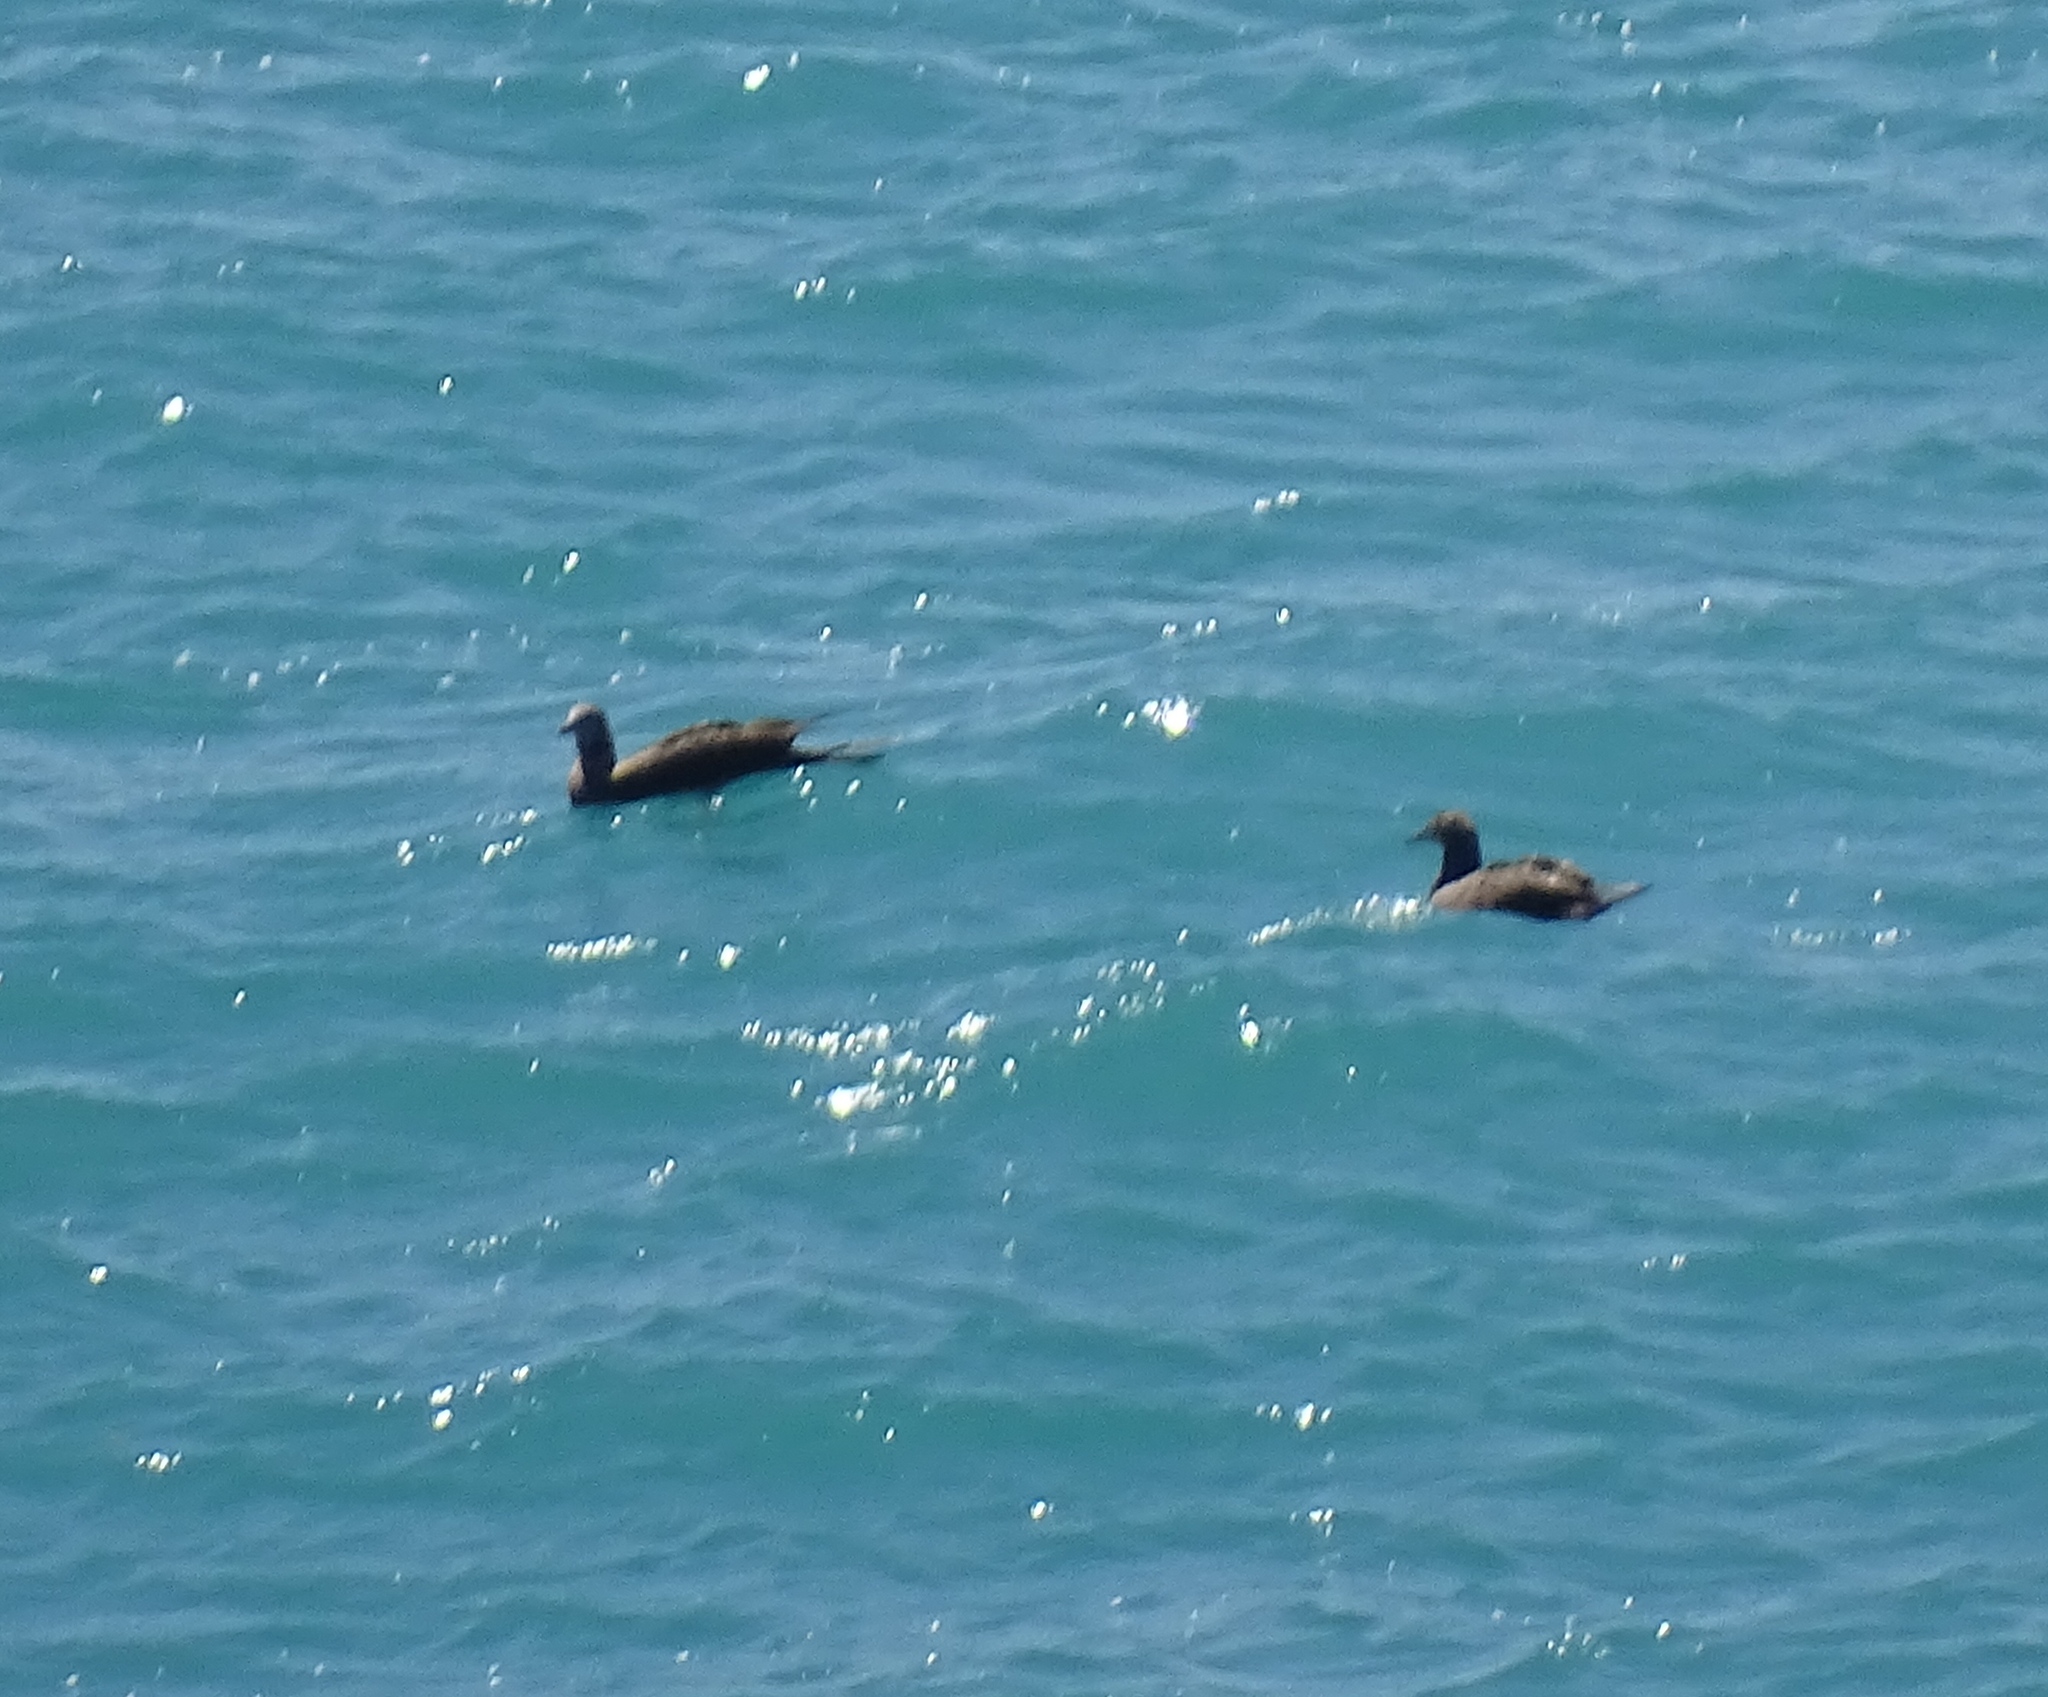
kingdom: Animalia
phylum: Chordata
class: Aves
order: Suliformes
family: Sulidae
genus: Sula
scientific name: Sula leucogaster
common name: Brown booby
